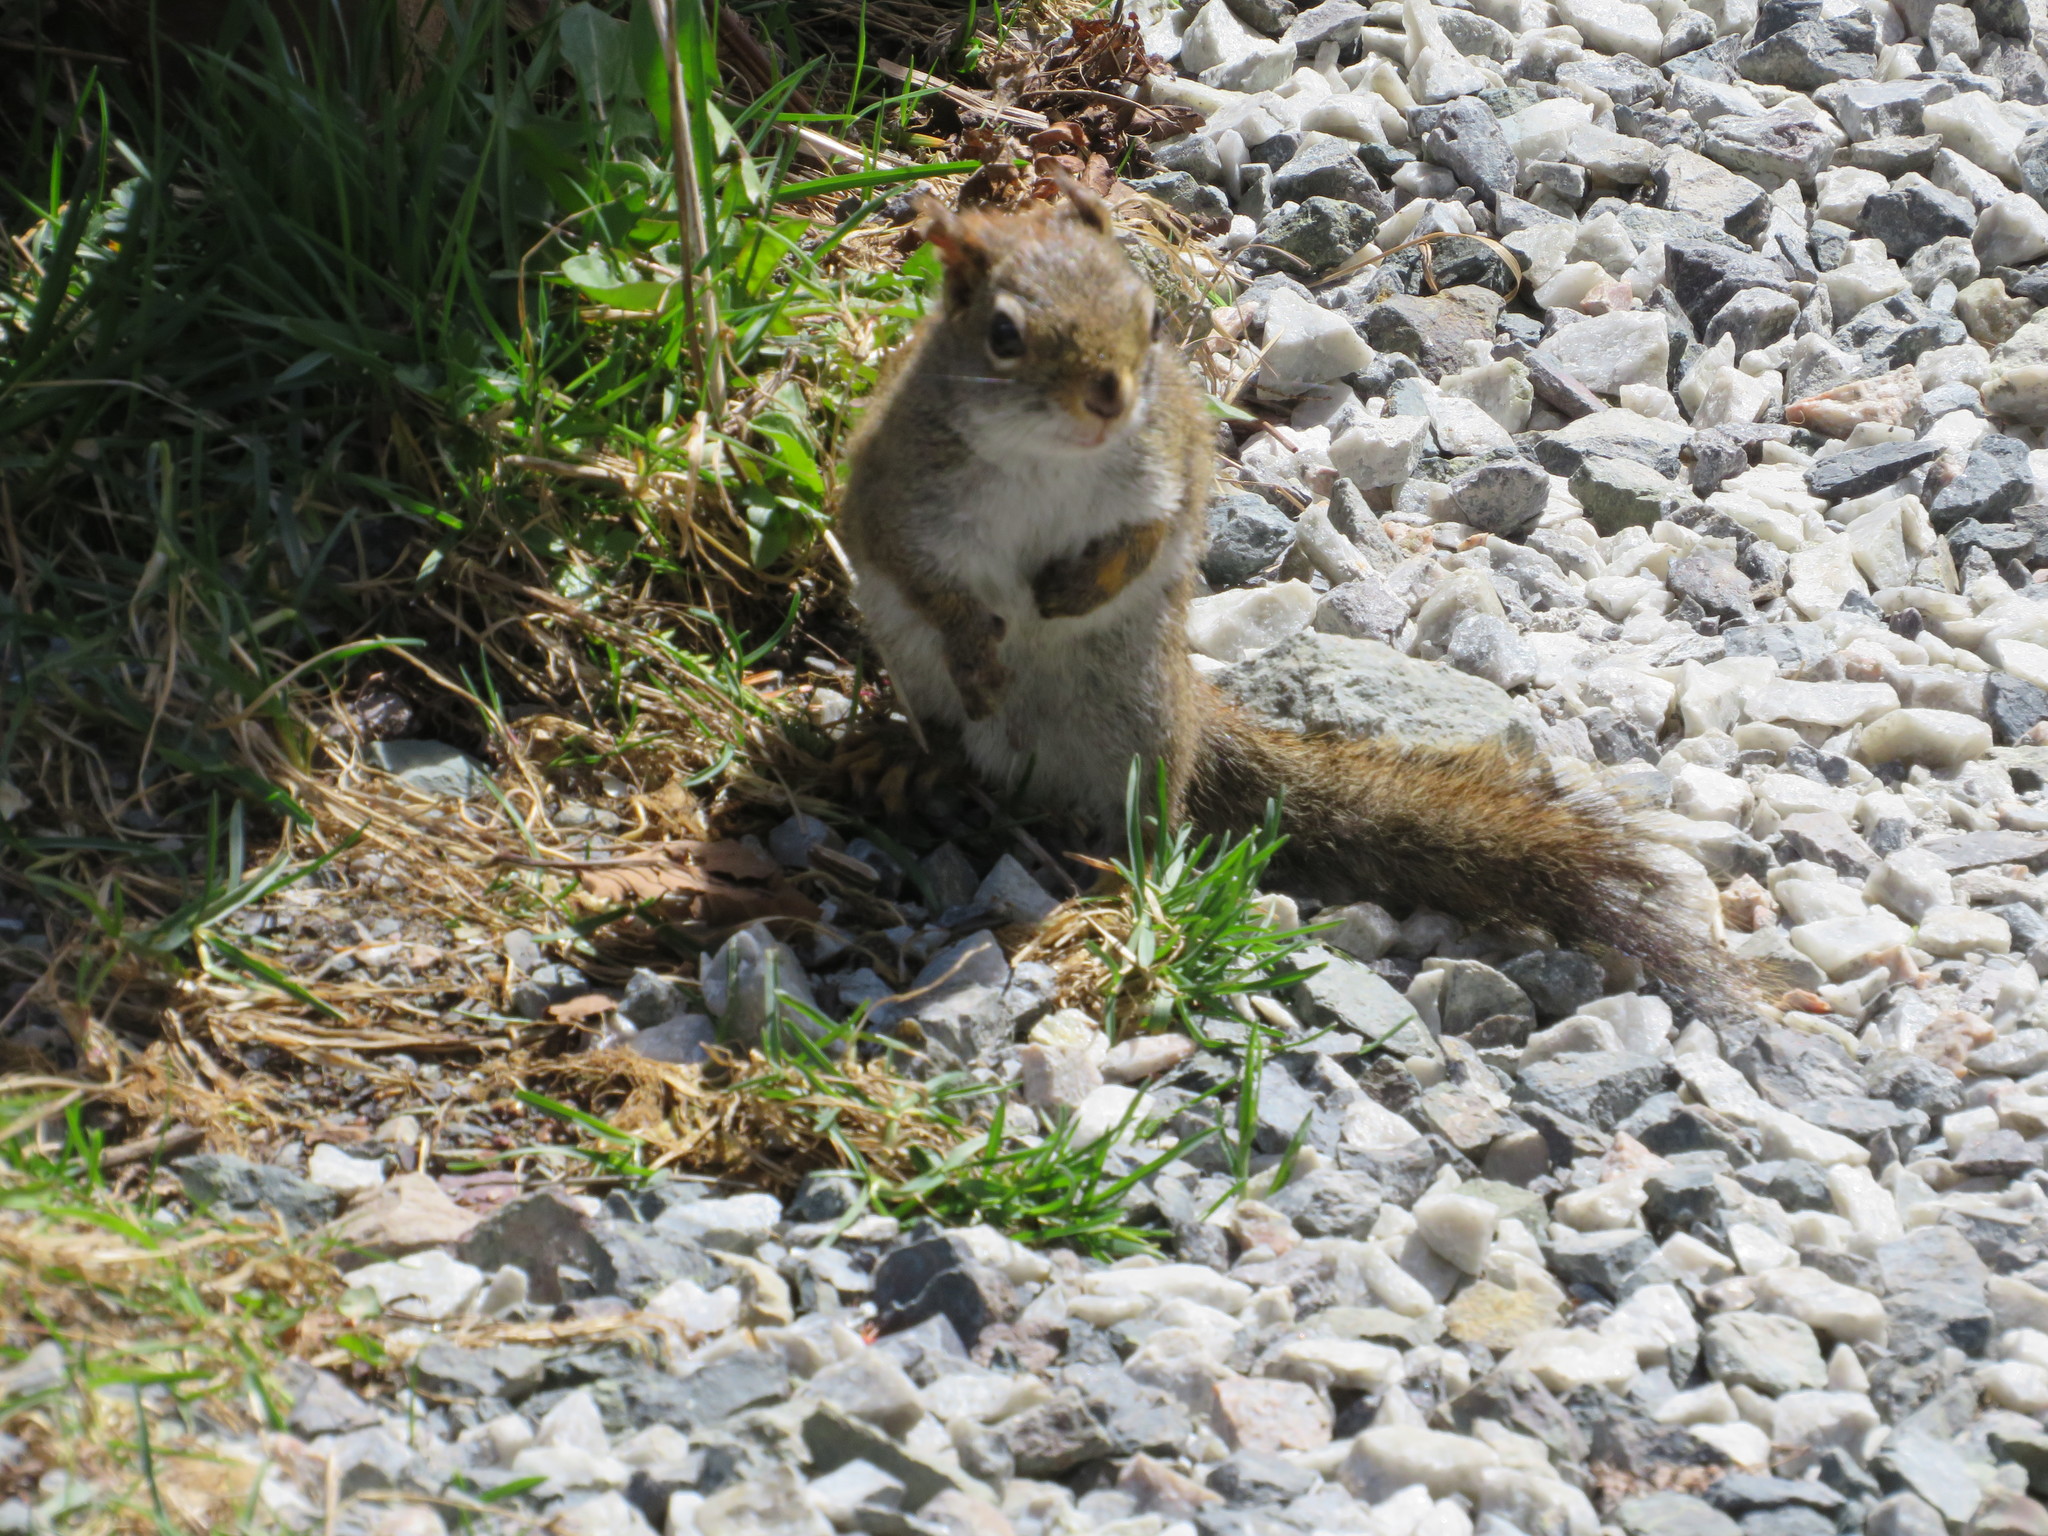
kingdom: Animalia
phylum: Chordata
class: Mammalia
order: Rodentia
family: Sciuridae
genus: Tamiasciurus
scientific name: Tamiasciurus hudsonicus
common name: Red squirrel
